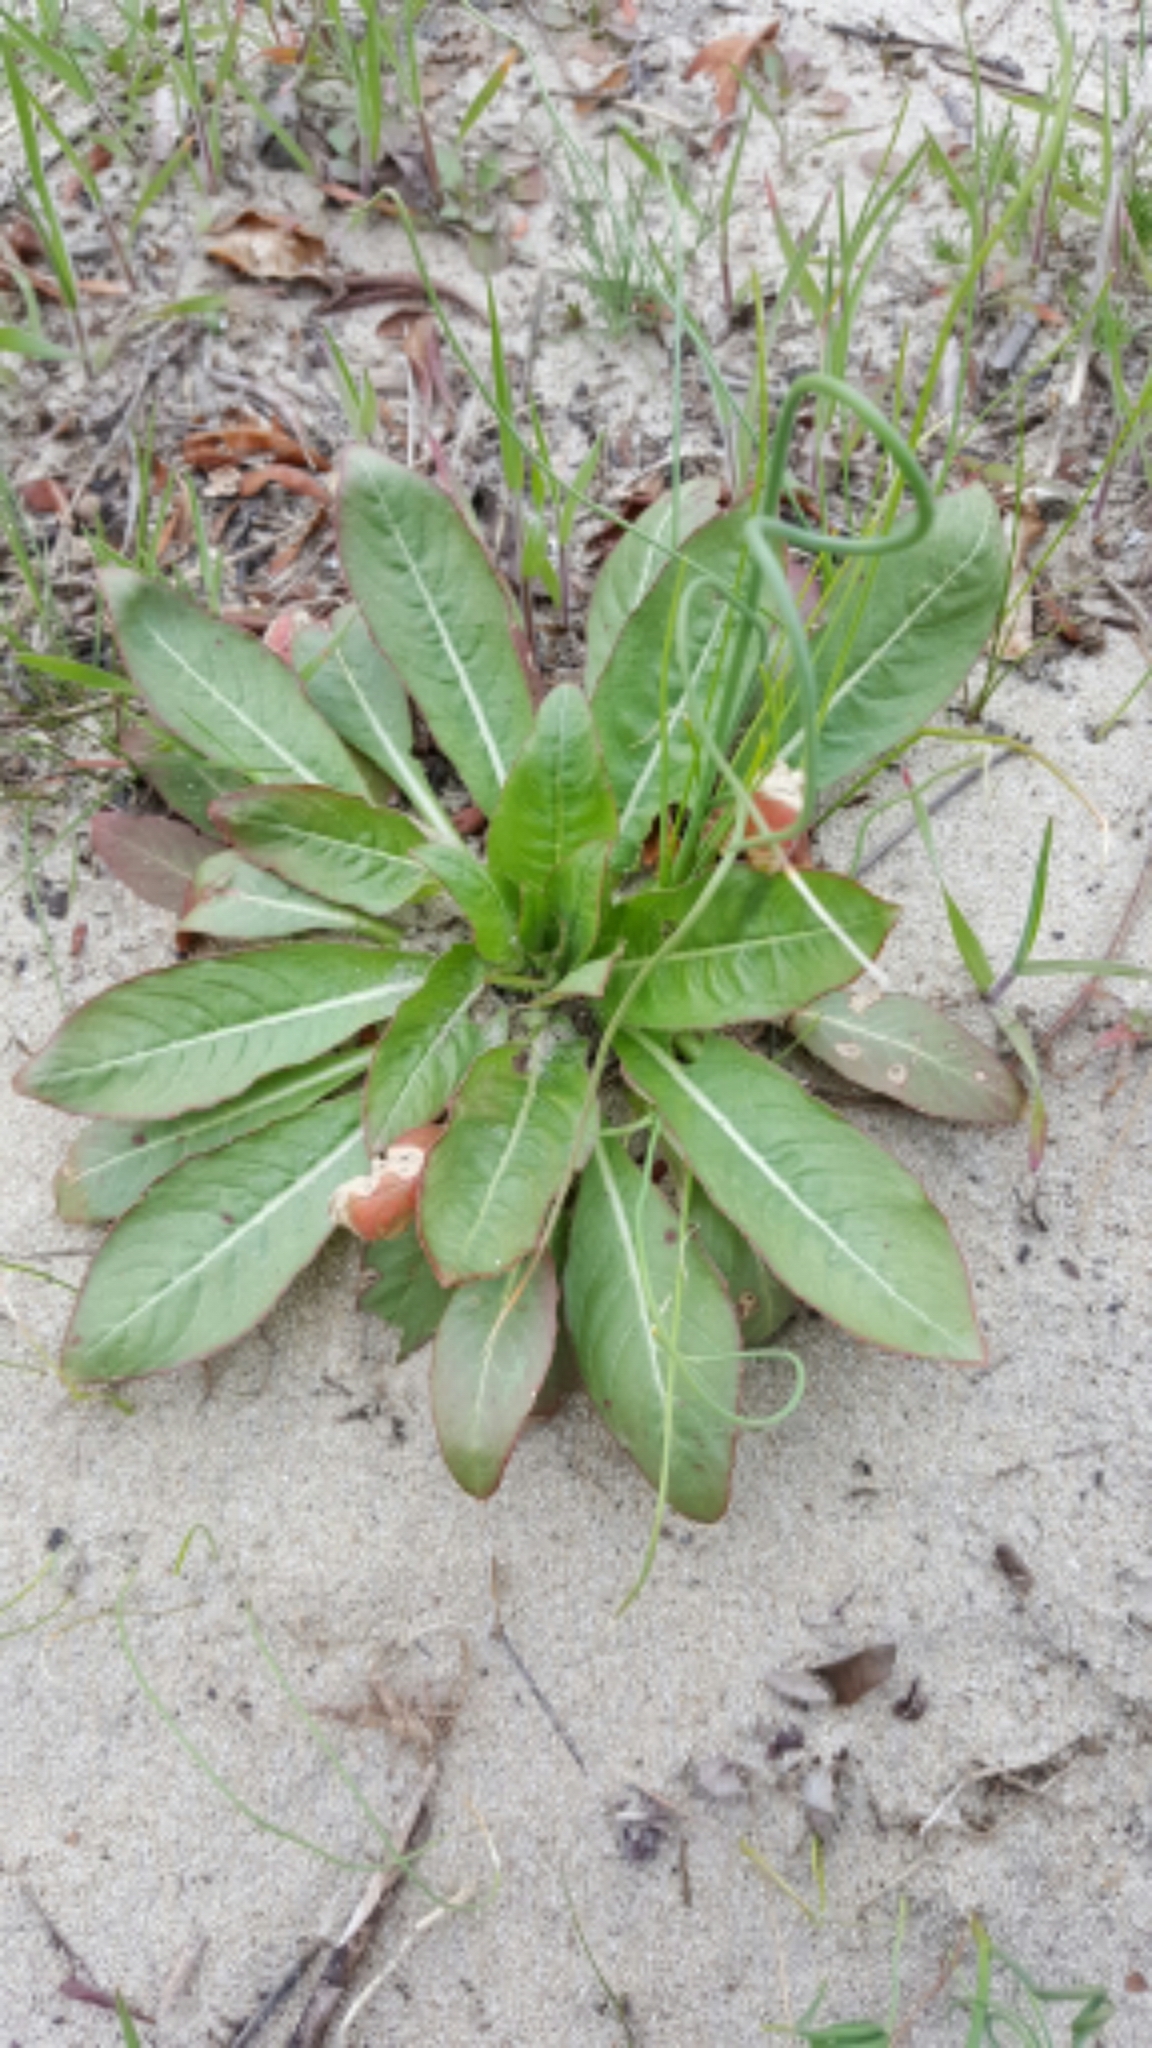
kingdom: Plantae
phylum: Tracheophyta
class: Magnoliopsida
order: Myrtales
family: Onagraceae
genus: Oenothera
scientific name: Oenothera biennis
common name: Common evening-primrose
